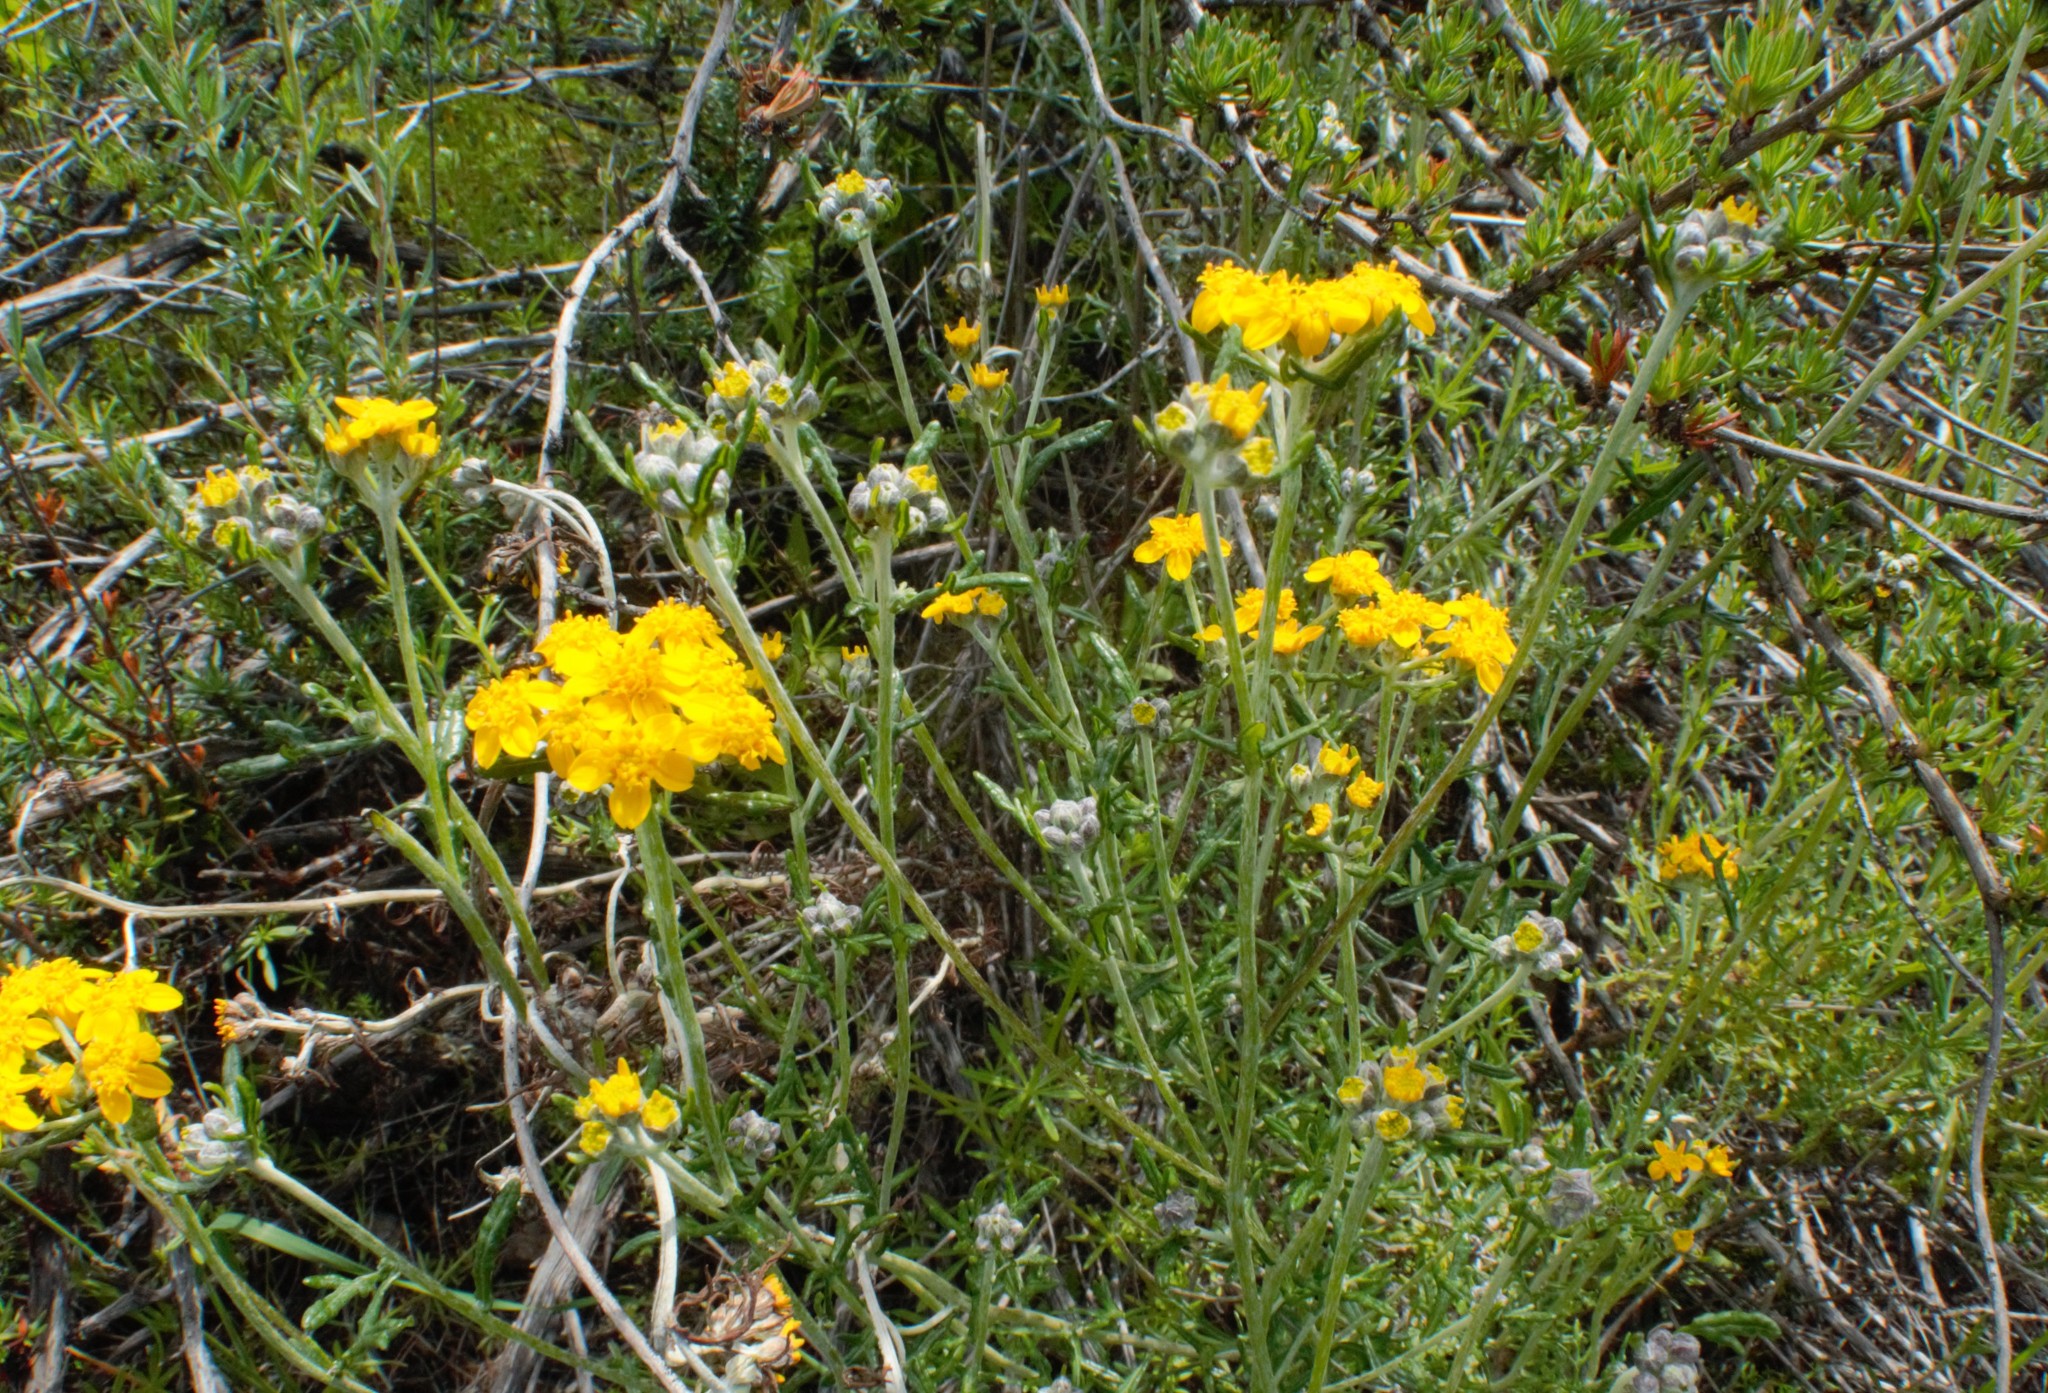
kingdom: Plantae
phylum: Tracheophyta
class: Magnoliopsida
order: Asterales
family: Asteraceae
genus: Eriophyllum
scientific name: Eriophyllum confertiflorum
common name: Golden-yarrow
